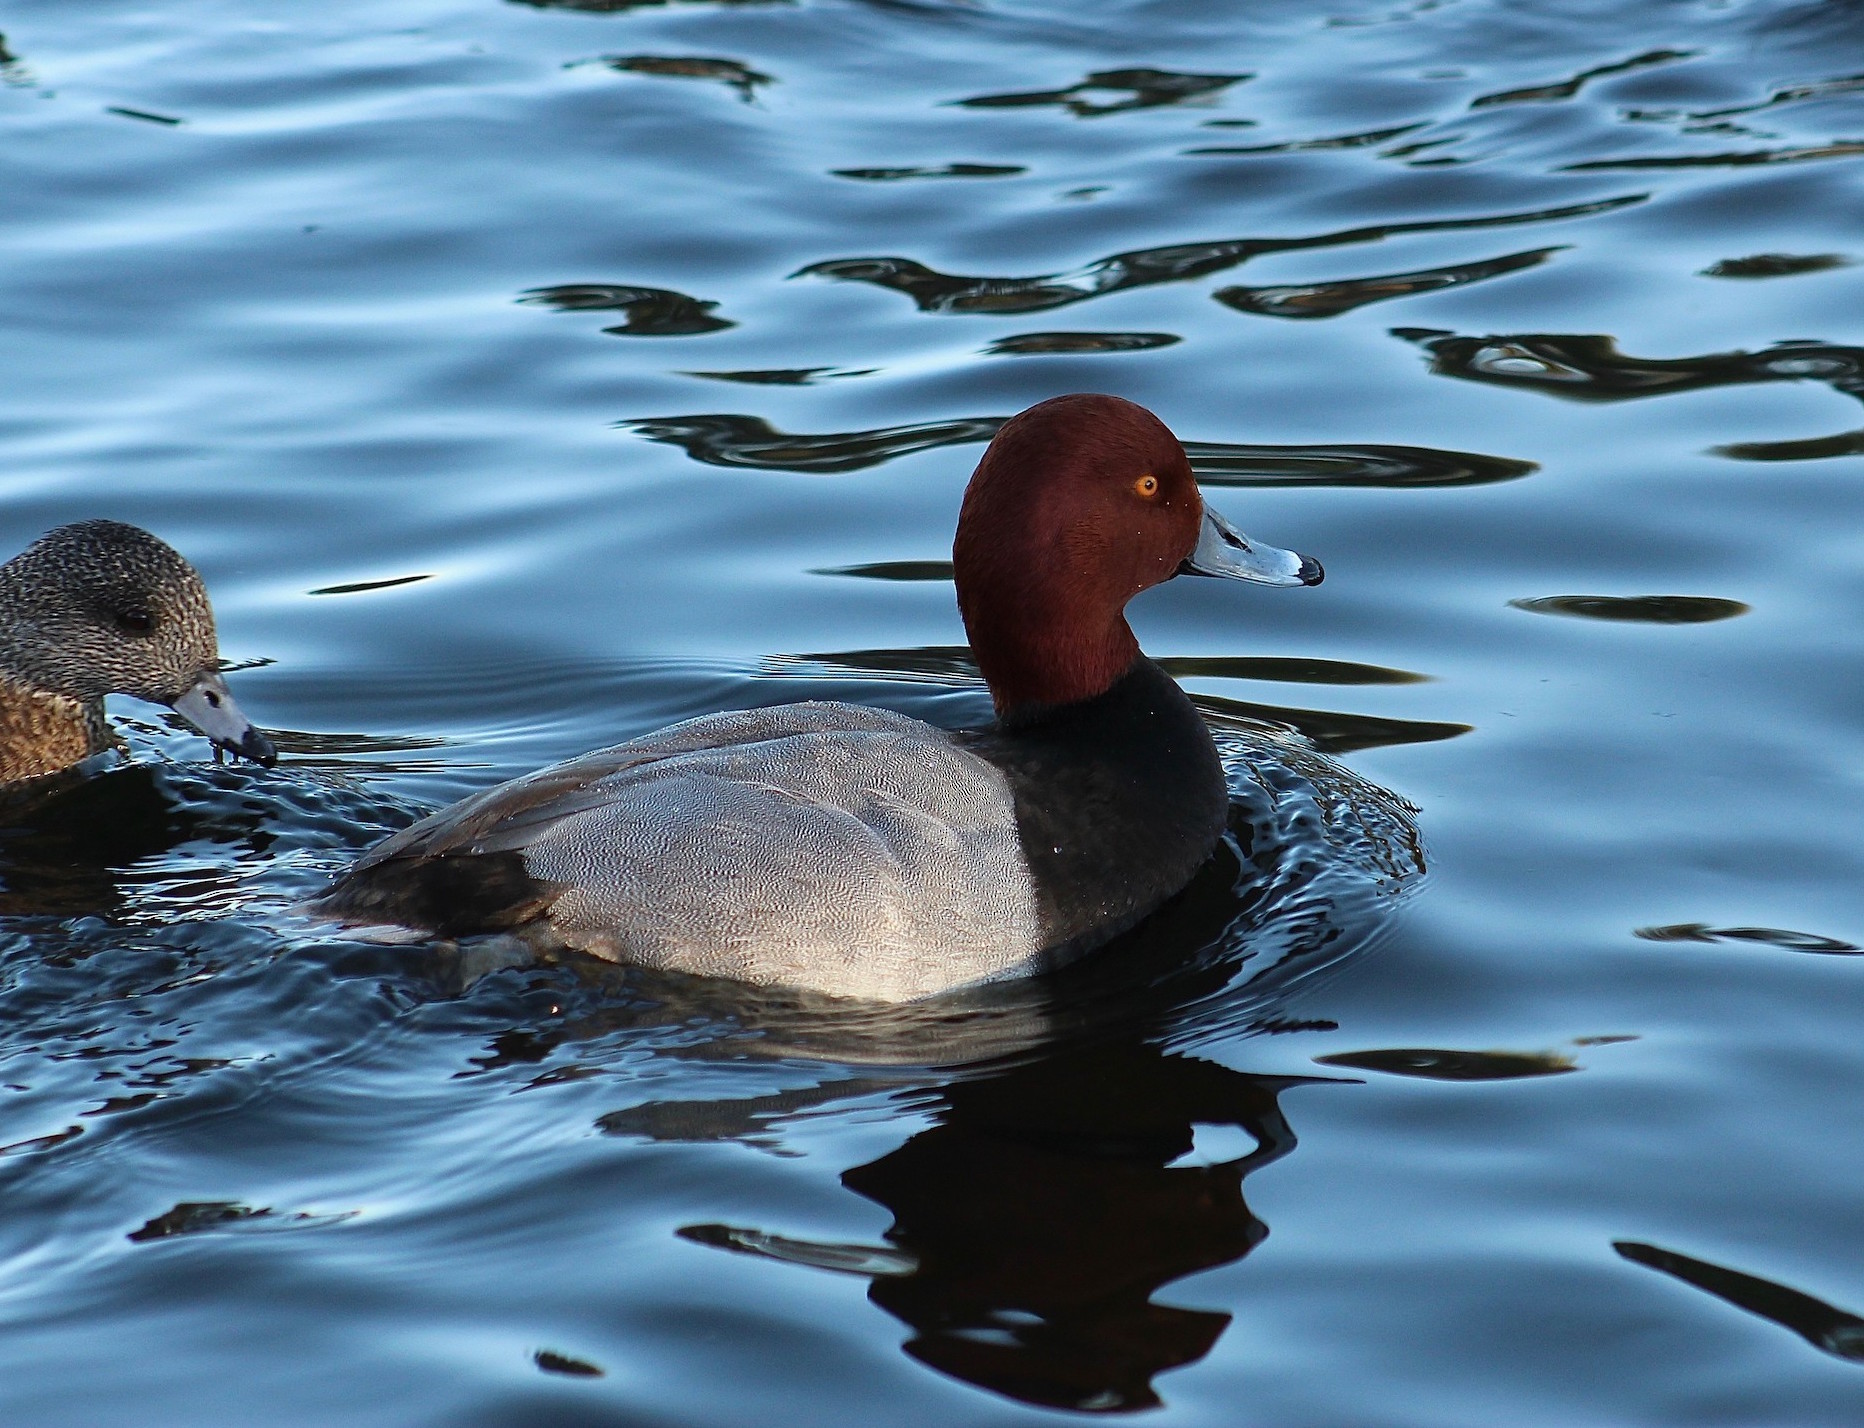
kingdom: Animalia
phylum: Chordata
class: Aves
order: Anseriformes
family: Anatidae
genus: Aythya
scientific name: Aythya americana
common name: Redhead
